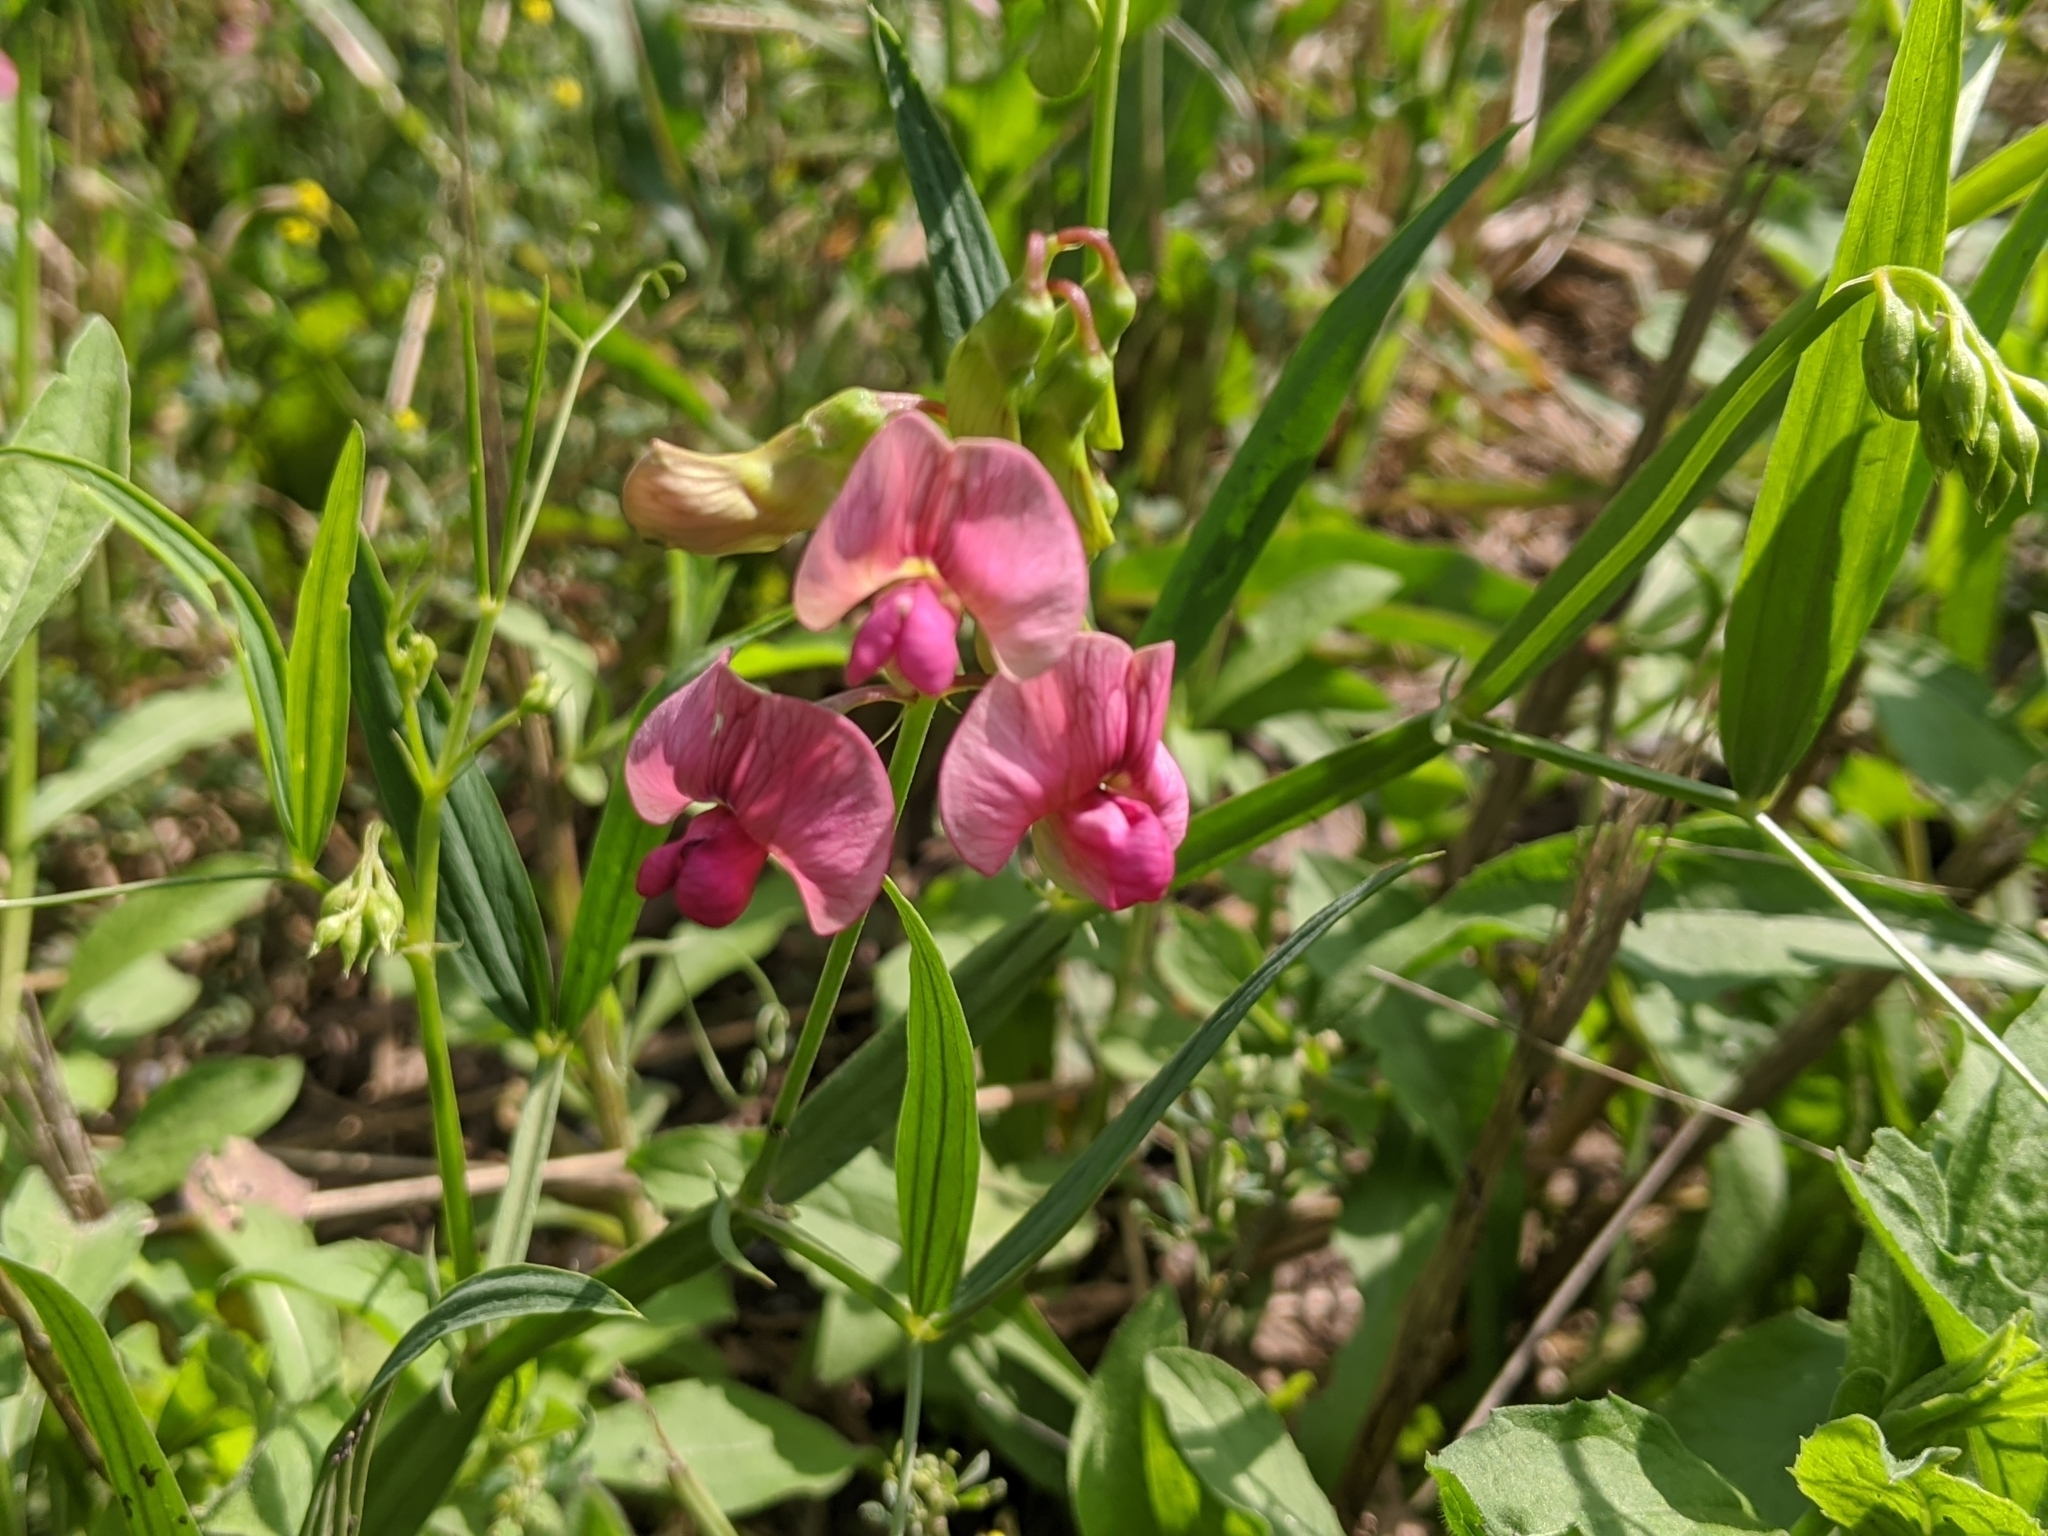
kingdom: Plantae
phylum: Tracheophyta
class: Magnoliopsida
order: Fabales
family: Fabaceae
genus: Lathyrus
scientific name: Lathyrus sylvestris
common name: Flat pea
